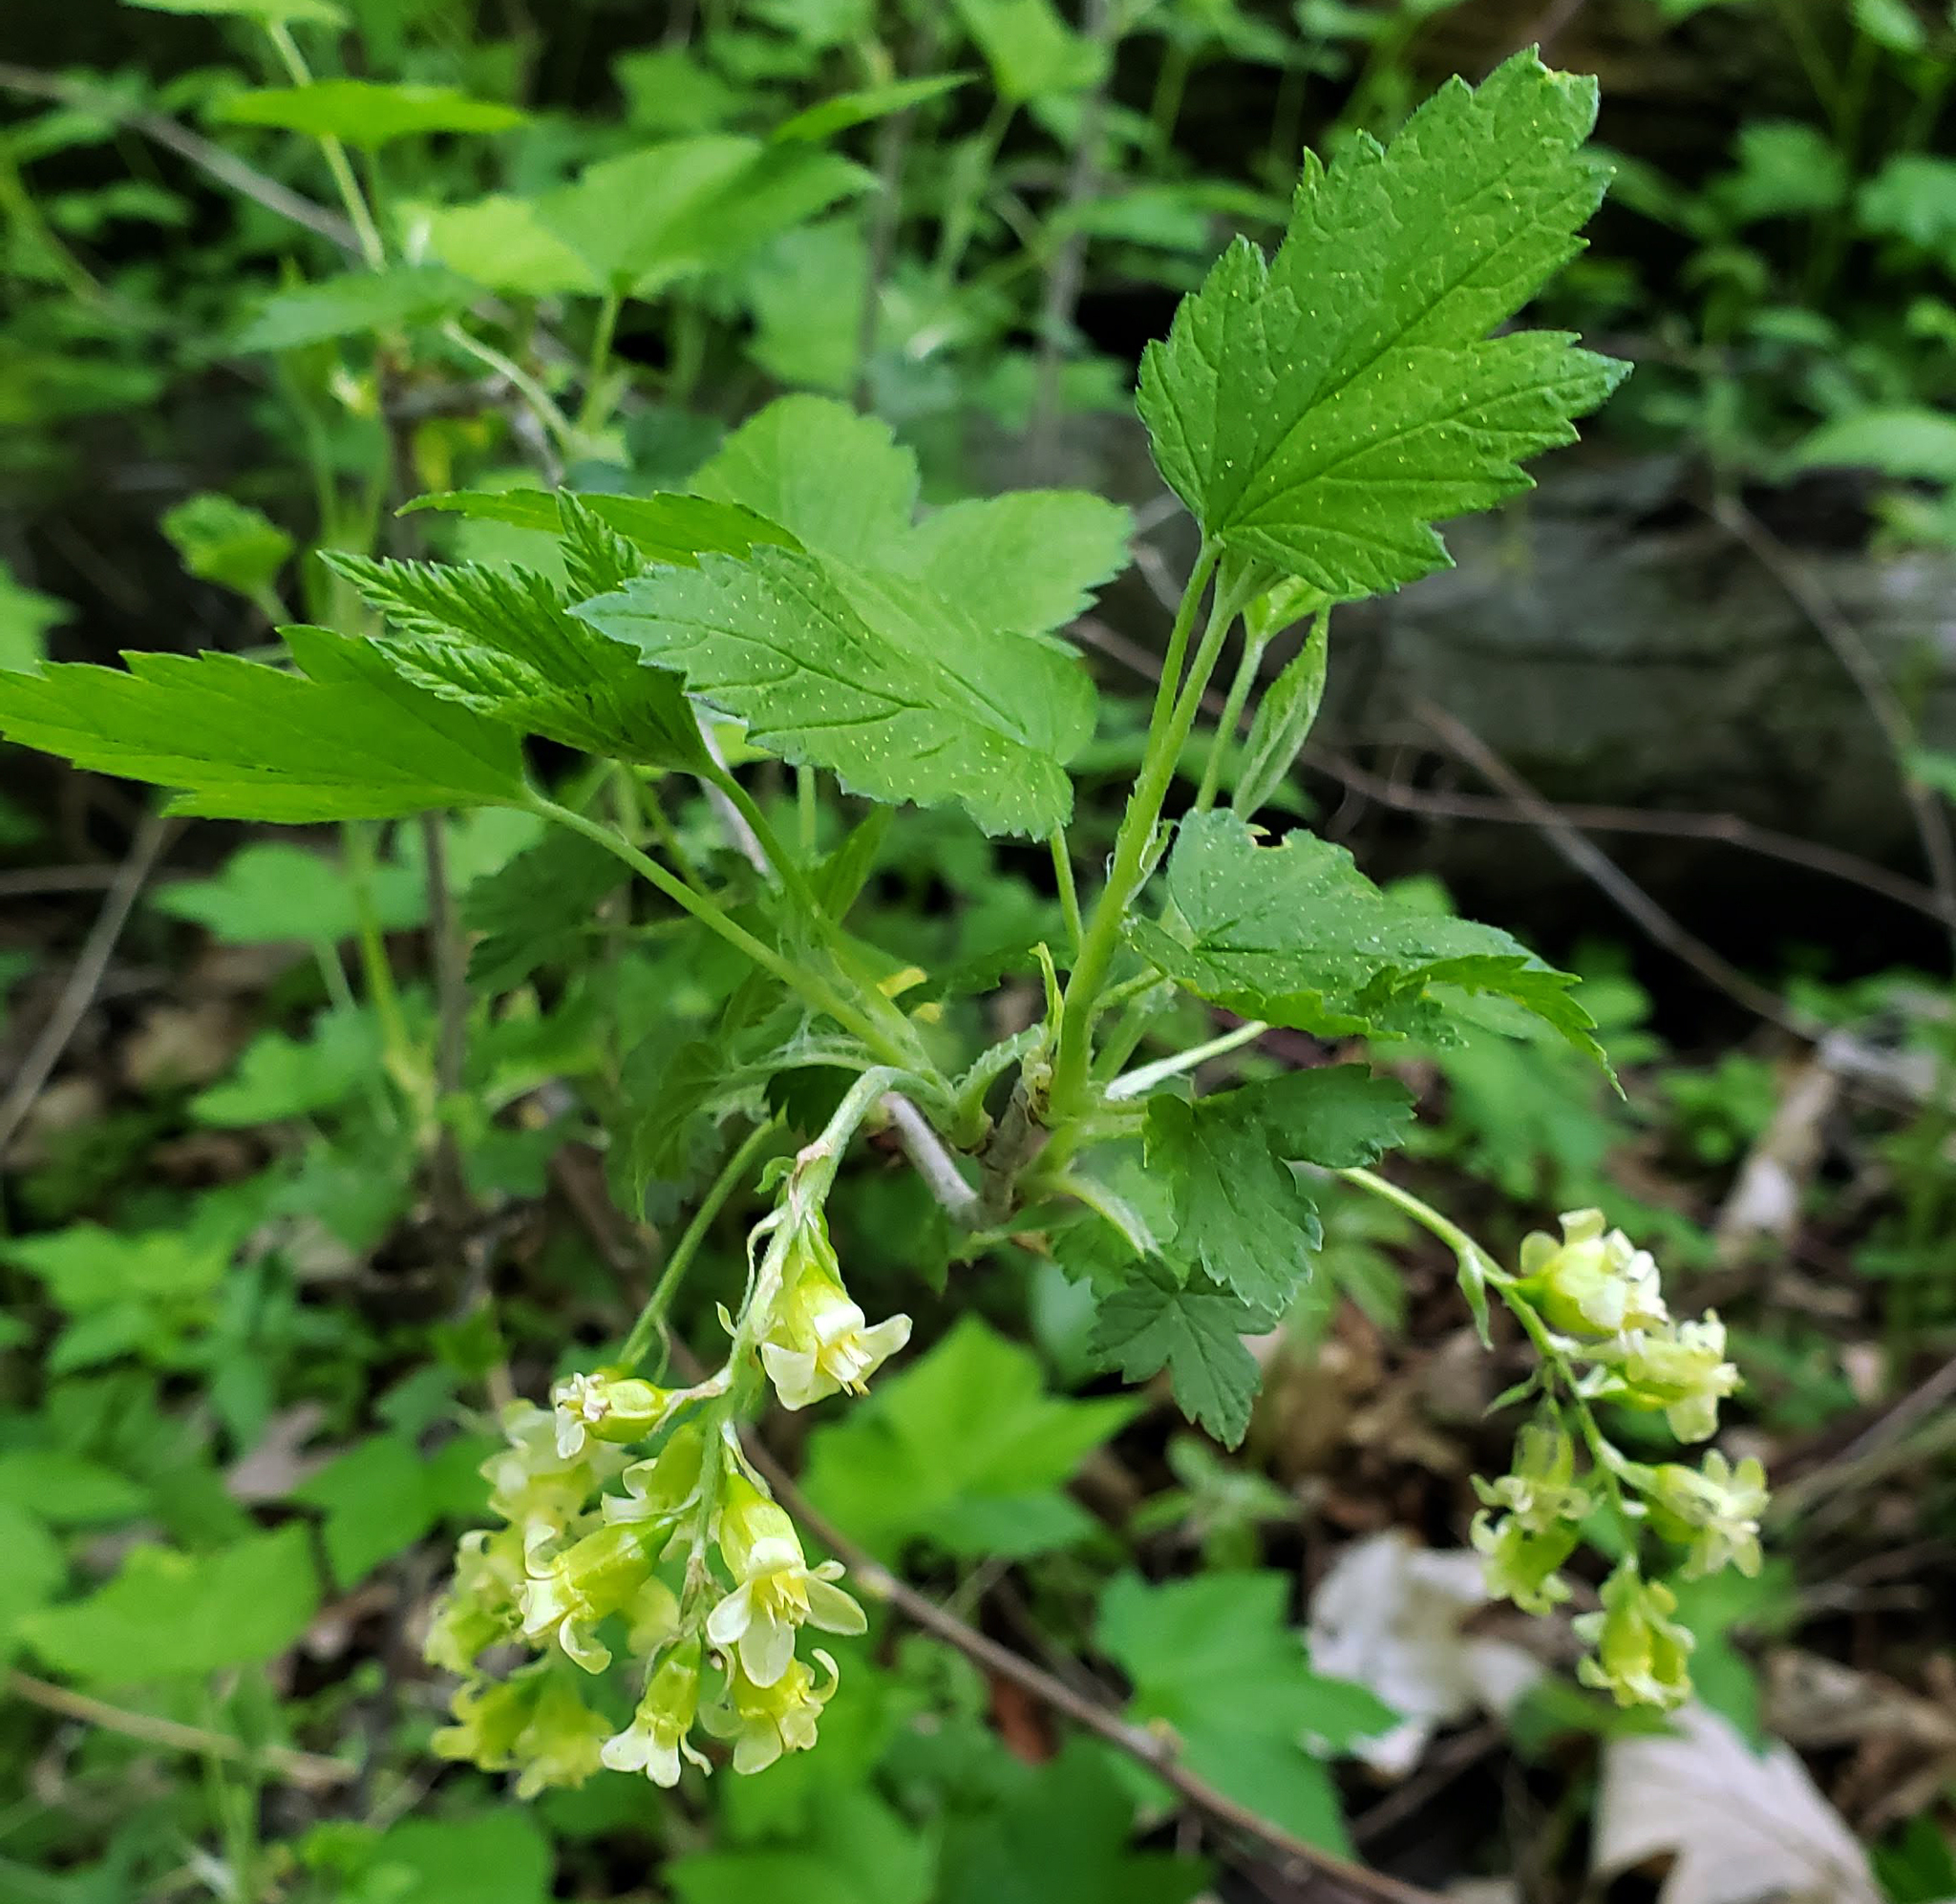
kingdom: Plantae
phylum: Tracheophyta
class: Magnoliopsida
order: Saxifragales
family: Grossulariaceae
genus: Ribes
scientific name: Ribes americanum
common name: American black currant
